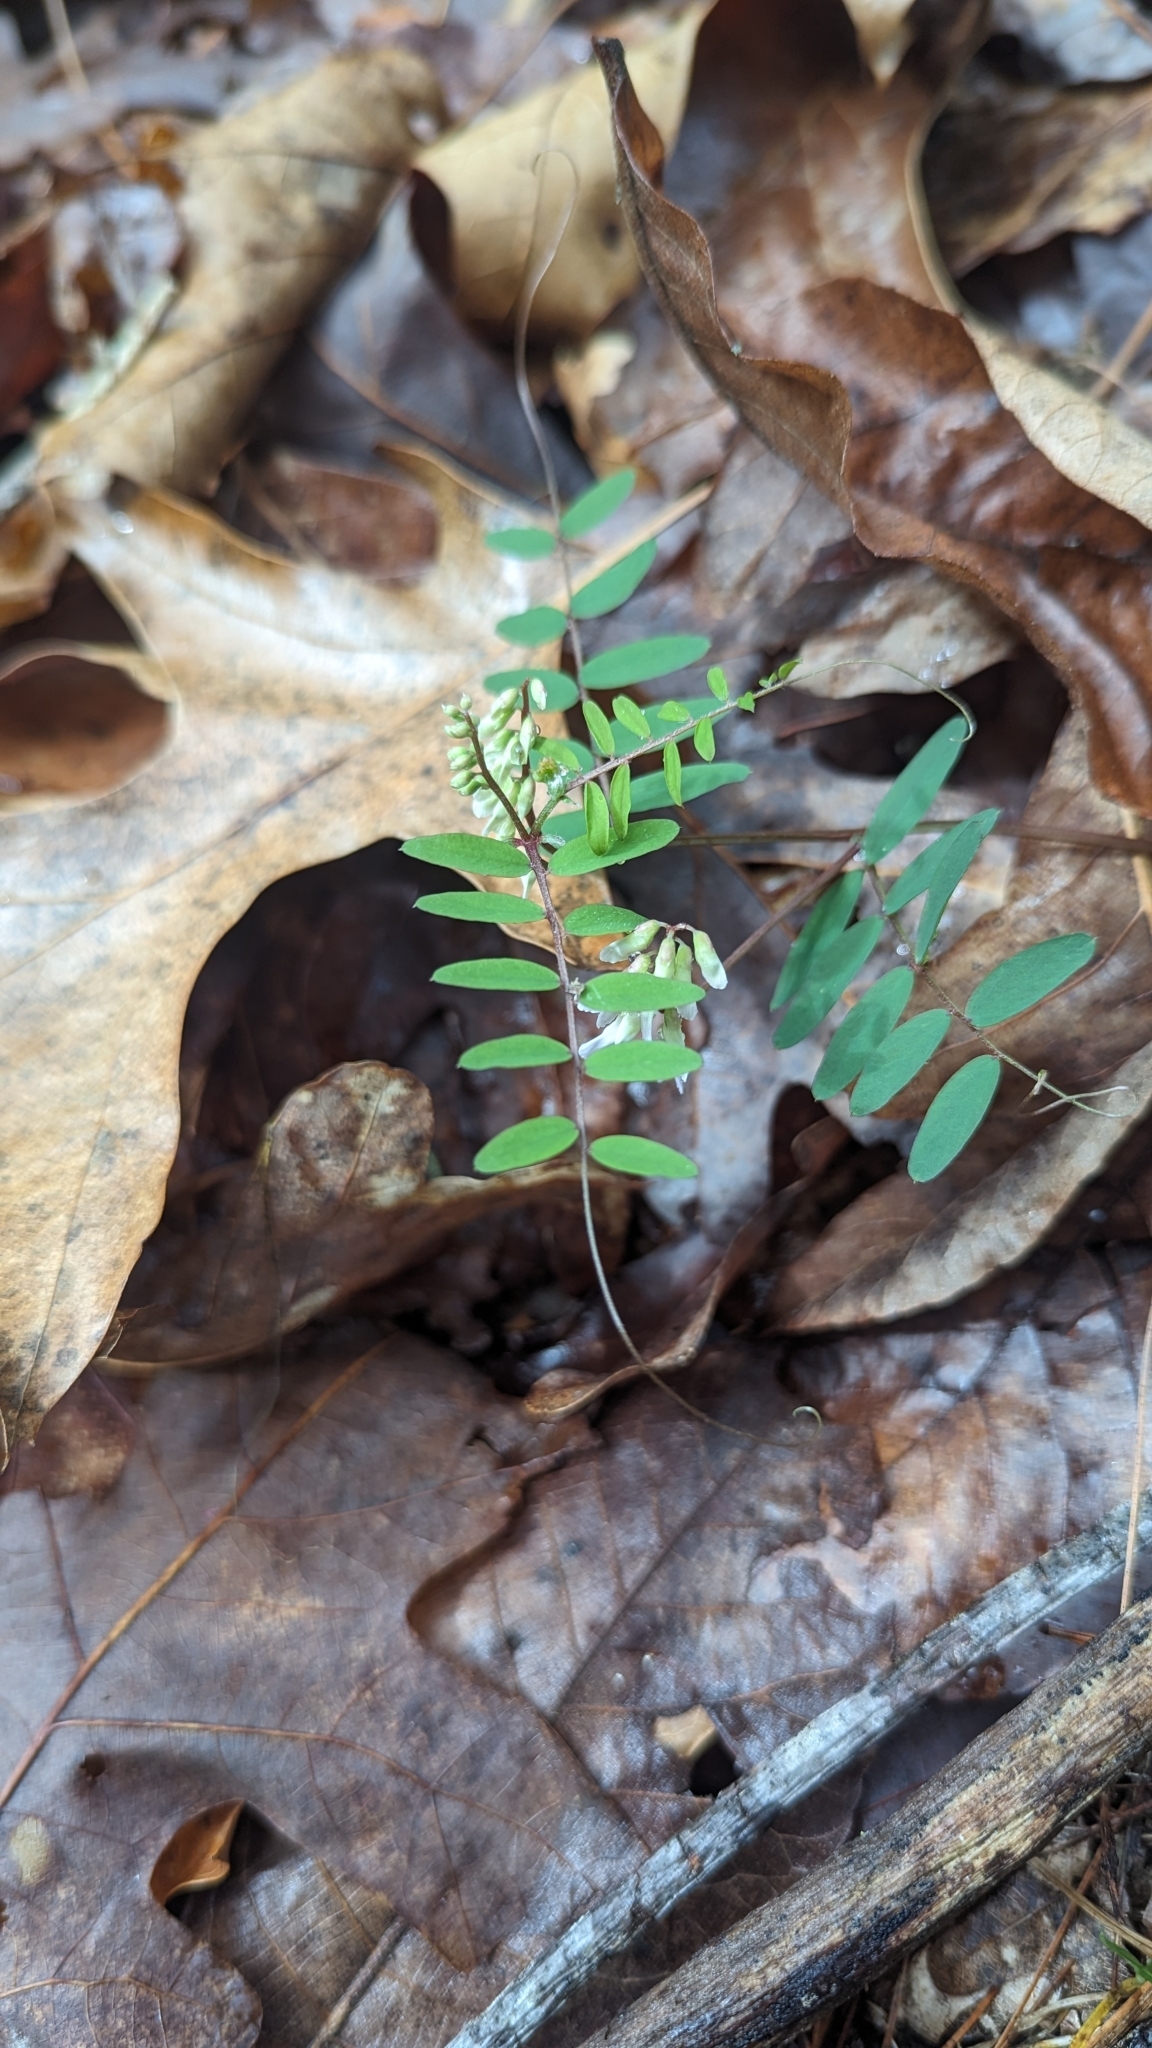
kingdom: Plantae
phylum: Tracheophyta
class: Magnoliopsida
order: Fabales
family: Fabaceae
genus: Vicia
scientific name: Vicia caroliniana
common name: Carolina vetch
